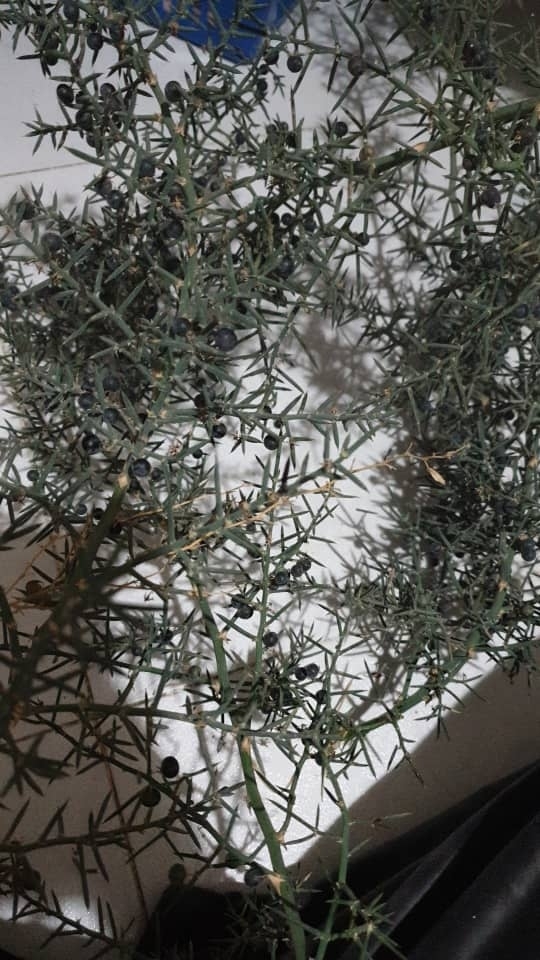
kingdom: Plantae
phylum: Tracheophyta
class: Liliopsida
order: Asparagales
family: Asparagaceae
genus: Asparagus
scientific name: Asparagus horridus
